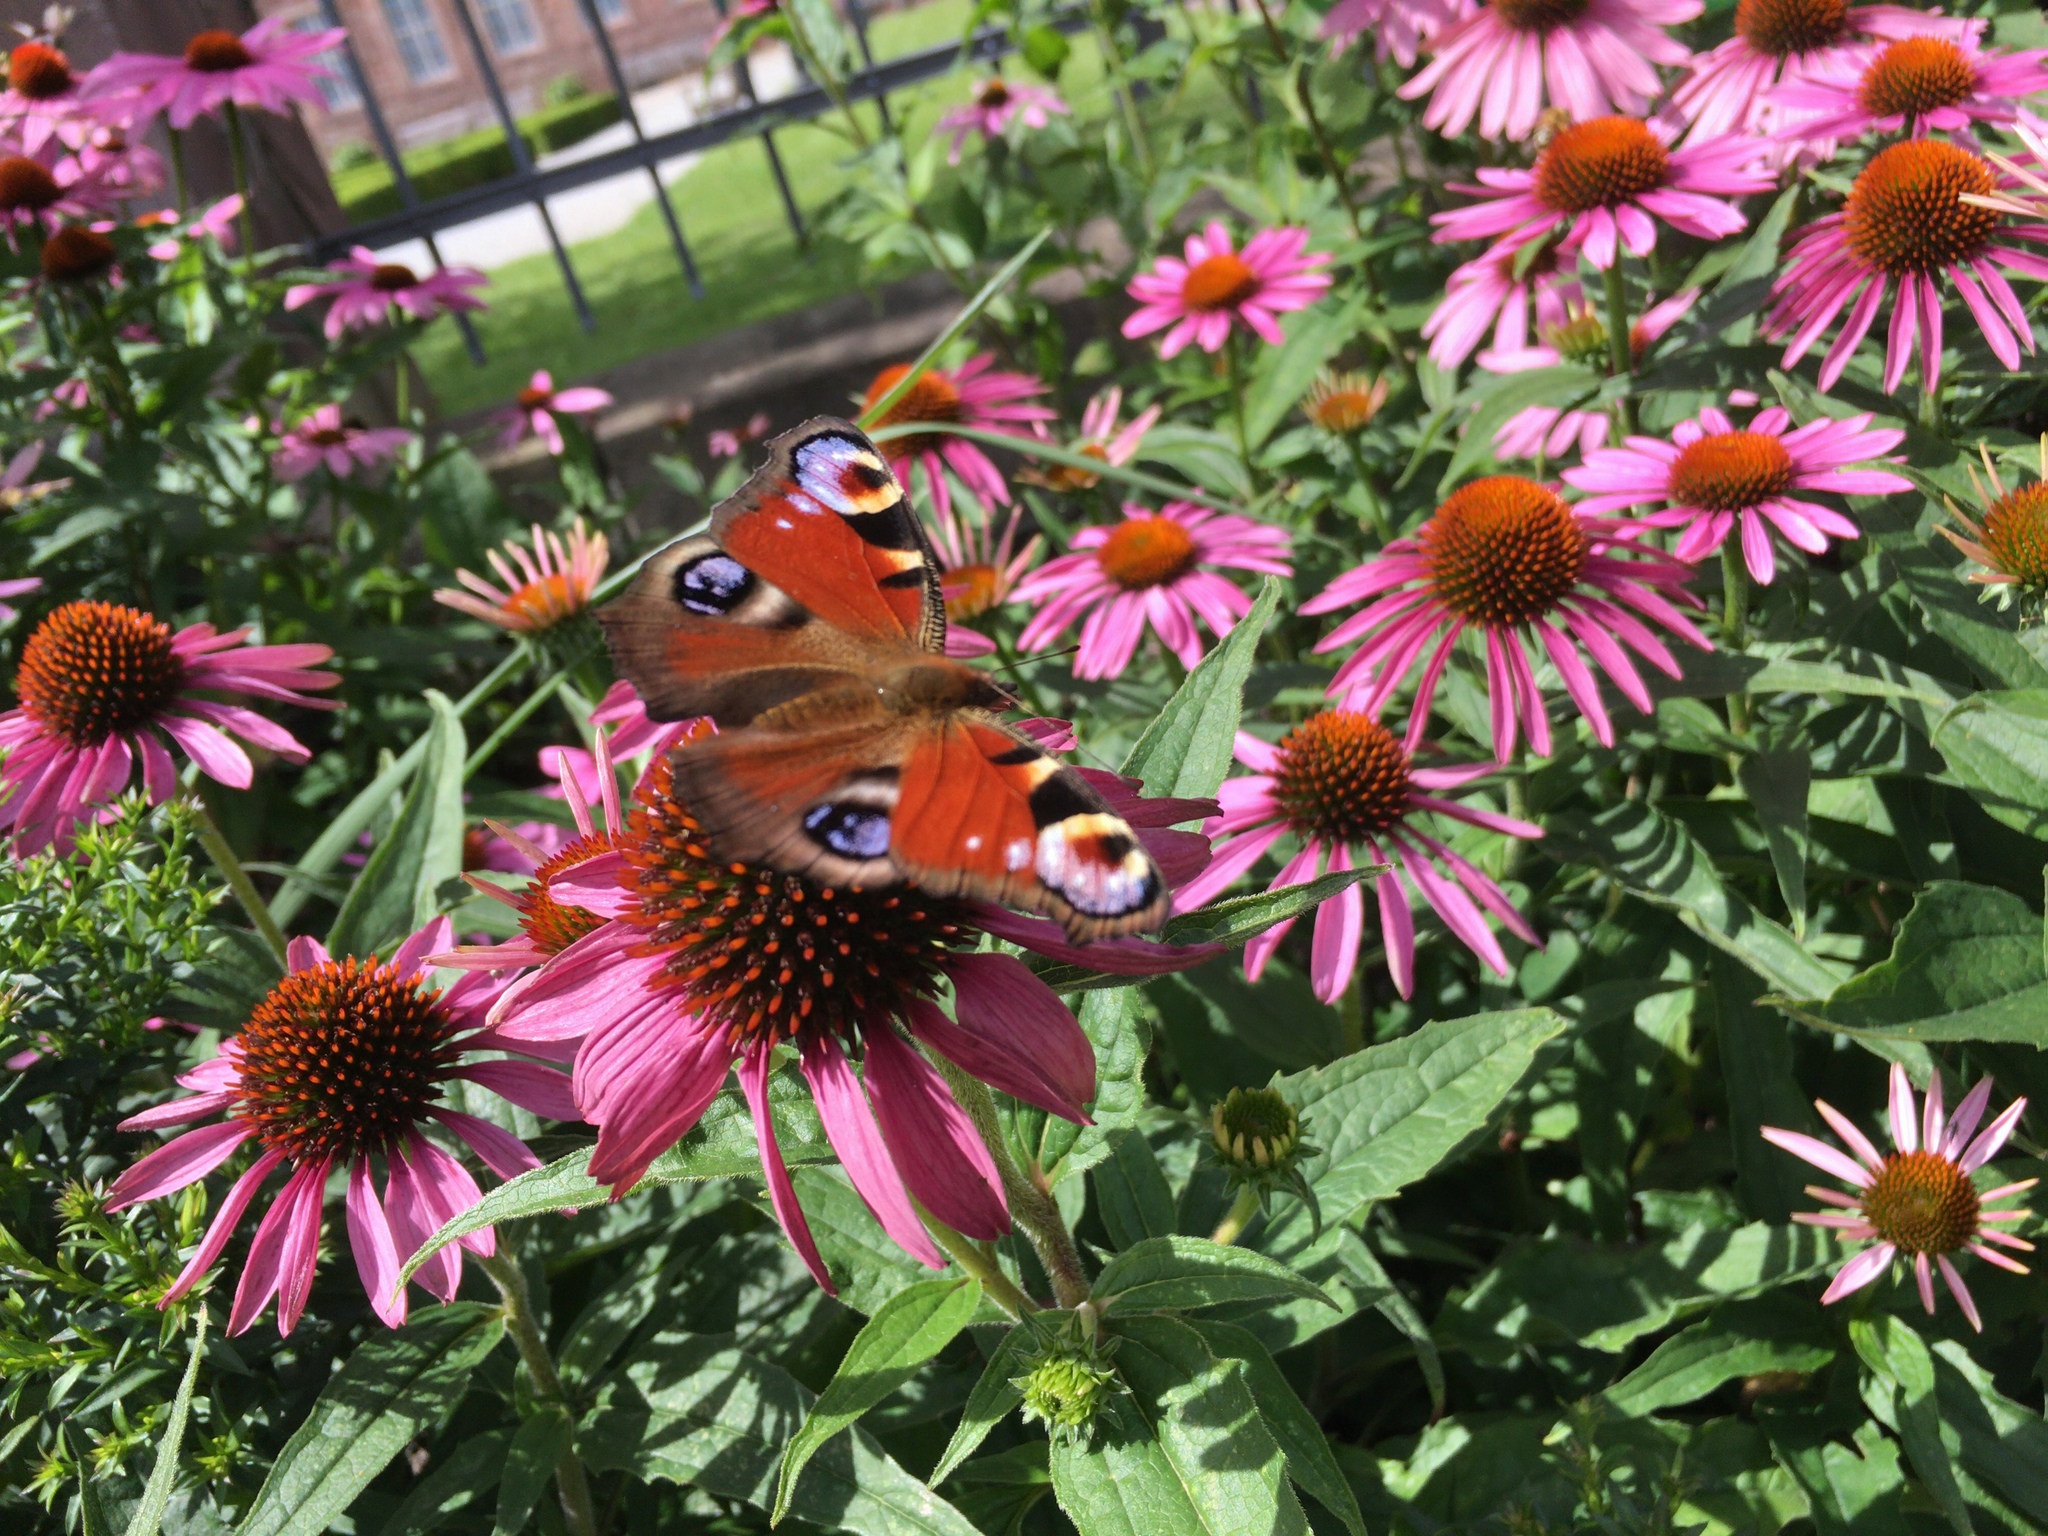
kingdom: Animalia
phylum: Arthropoda
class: Insecta
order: Lepidoptera
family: Nymphalidae
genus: Aglais
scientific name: Aglais io
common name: Peacock
